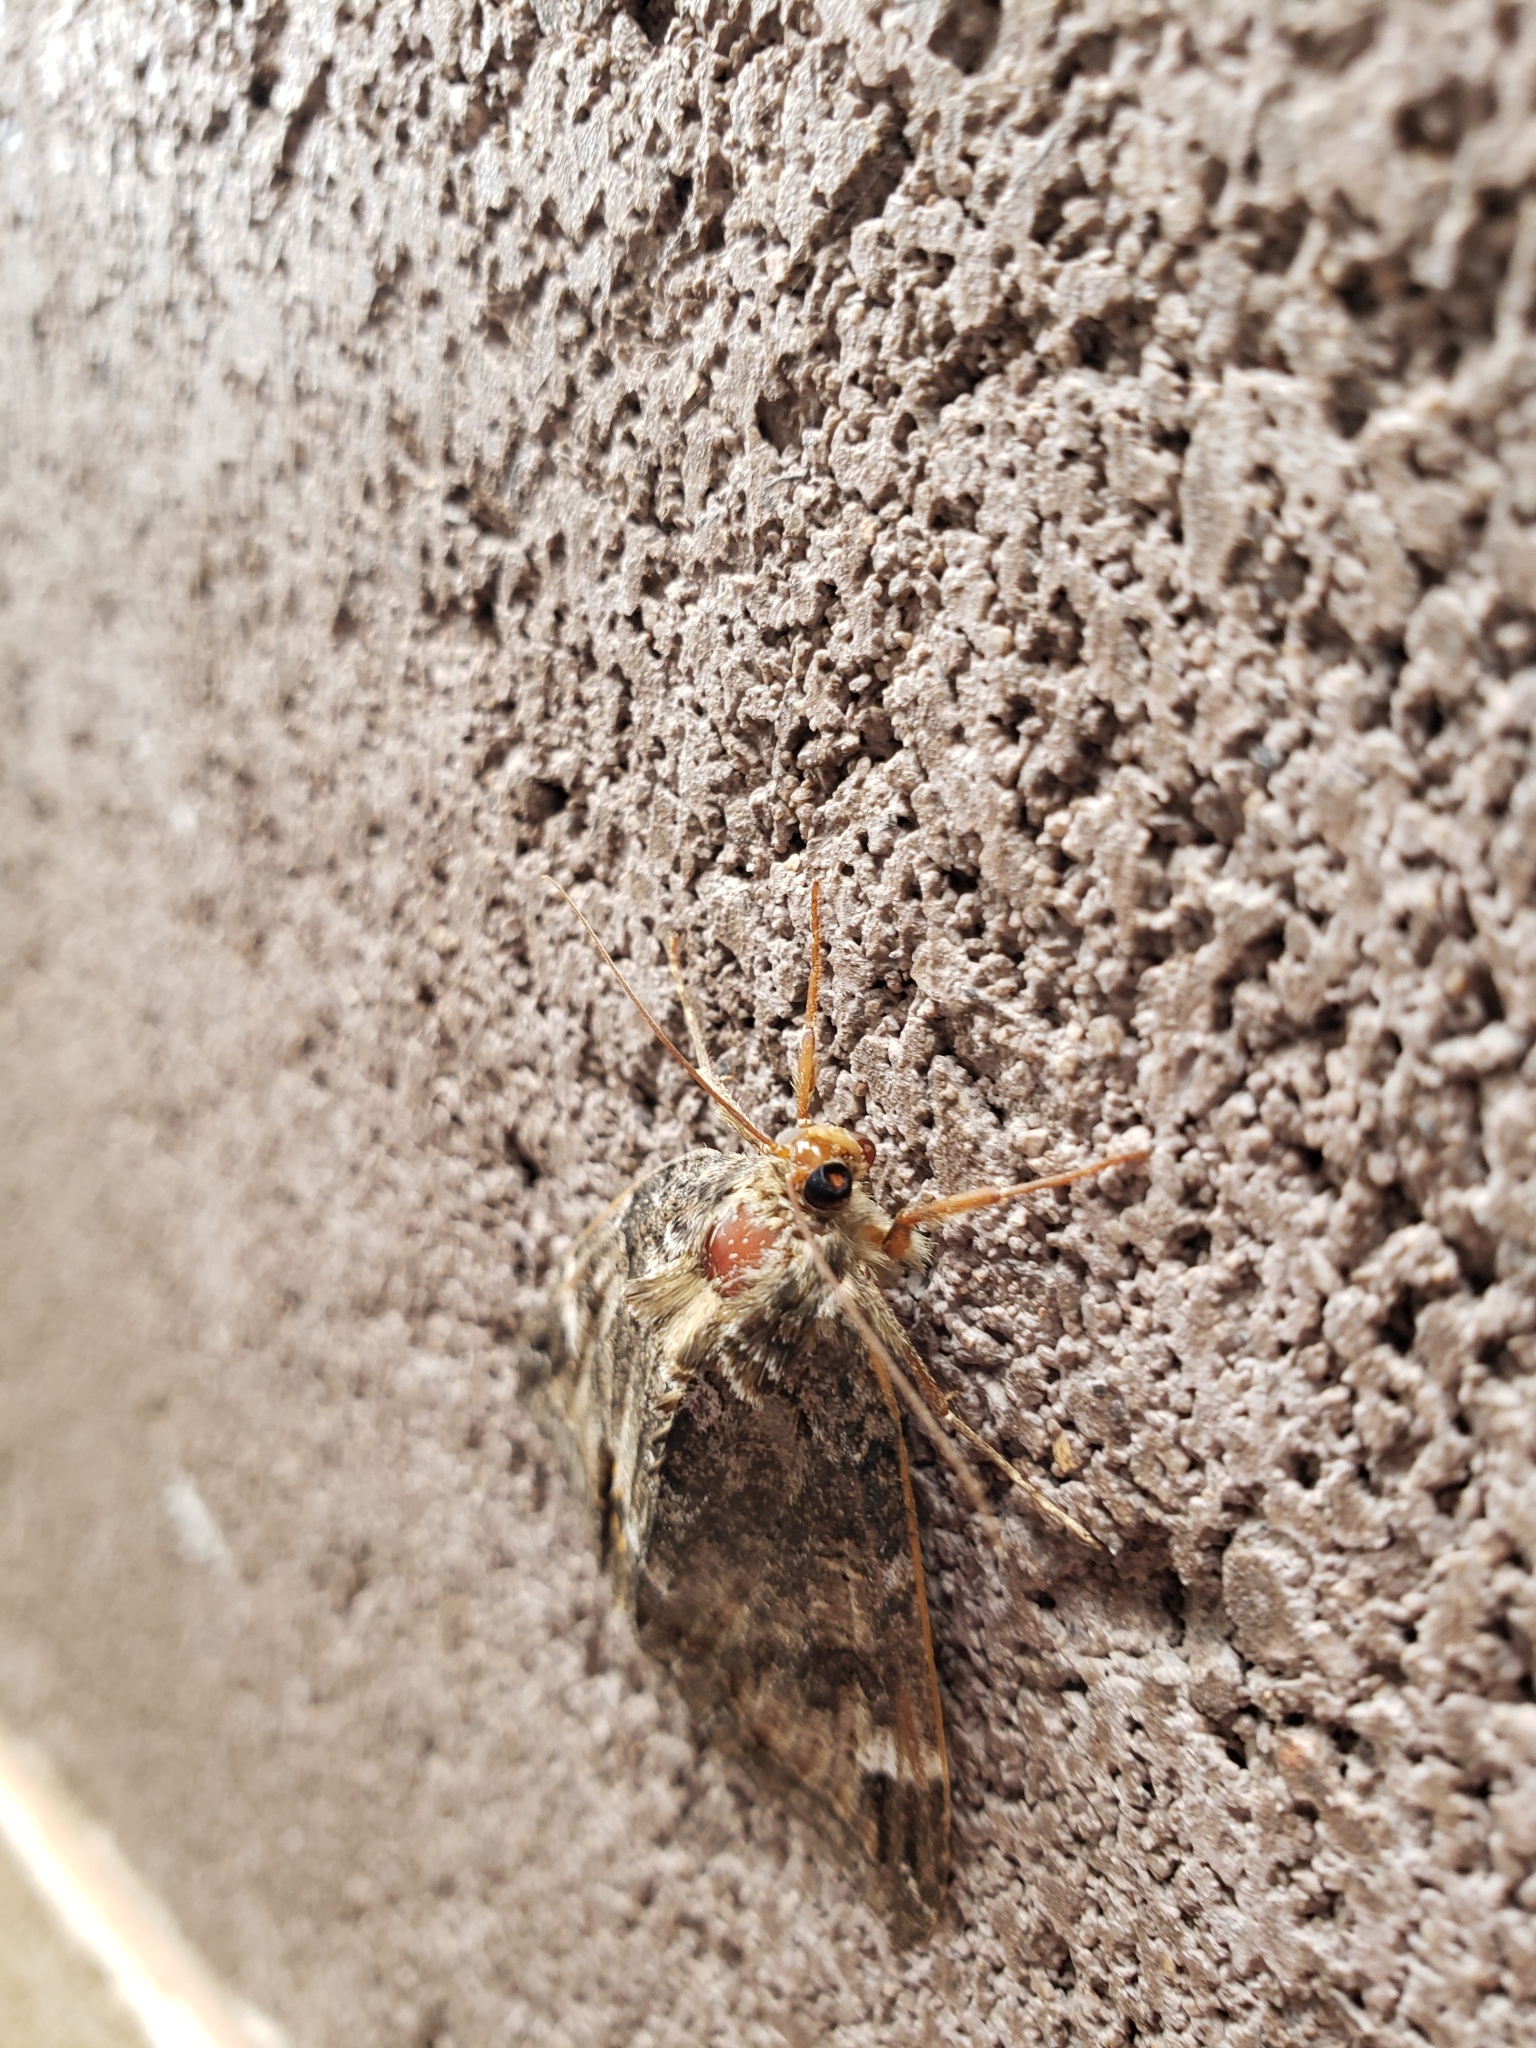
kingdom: Animalia
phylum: Arthropoda
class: Insecta
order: Lepidoptera
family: Erebidae
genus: Euparthenos
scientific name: Euparthenos nubilis
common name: Locust underwing
